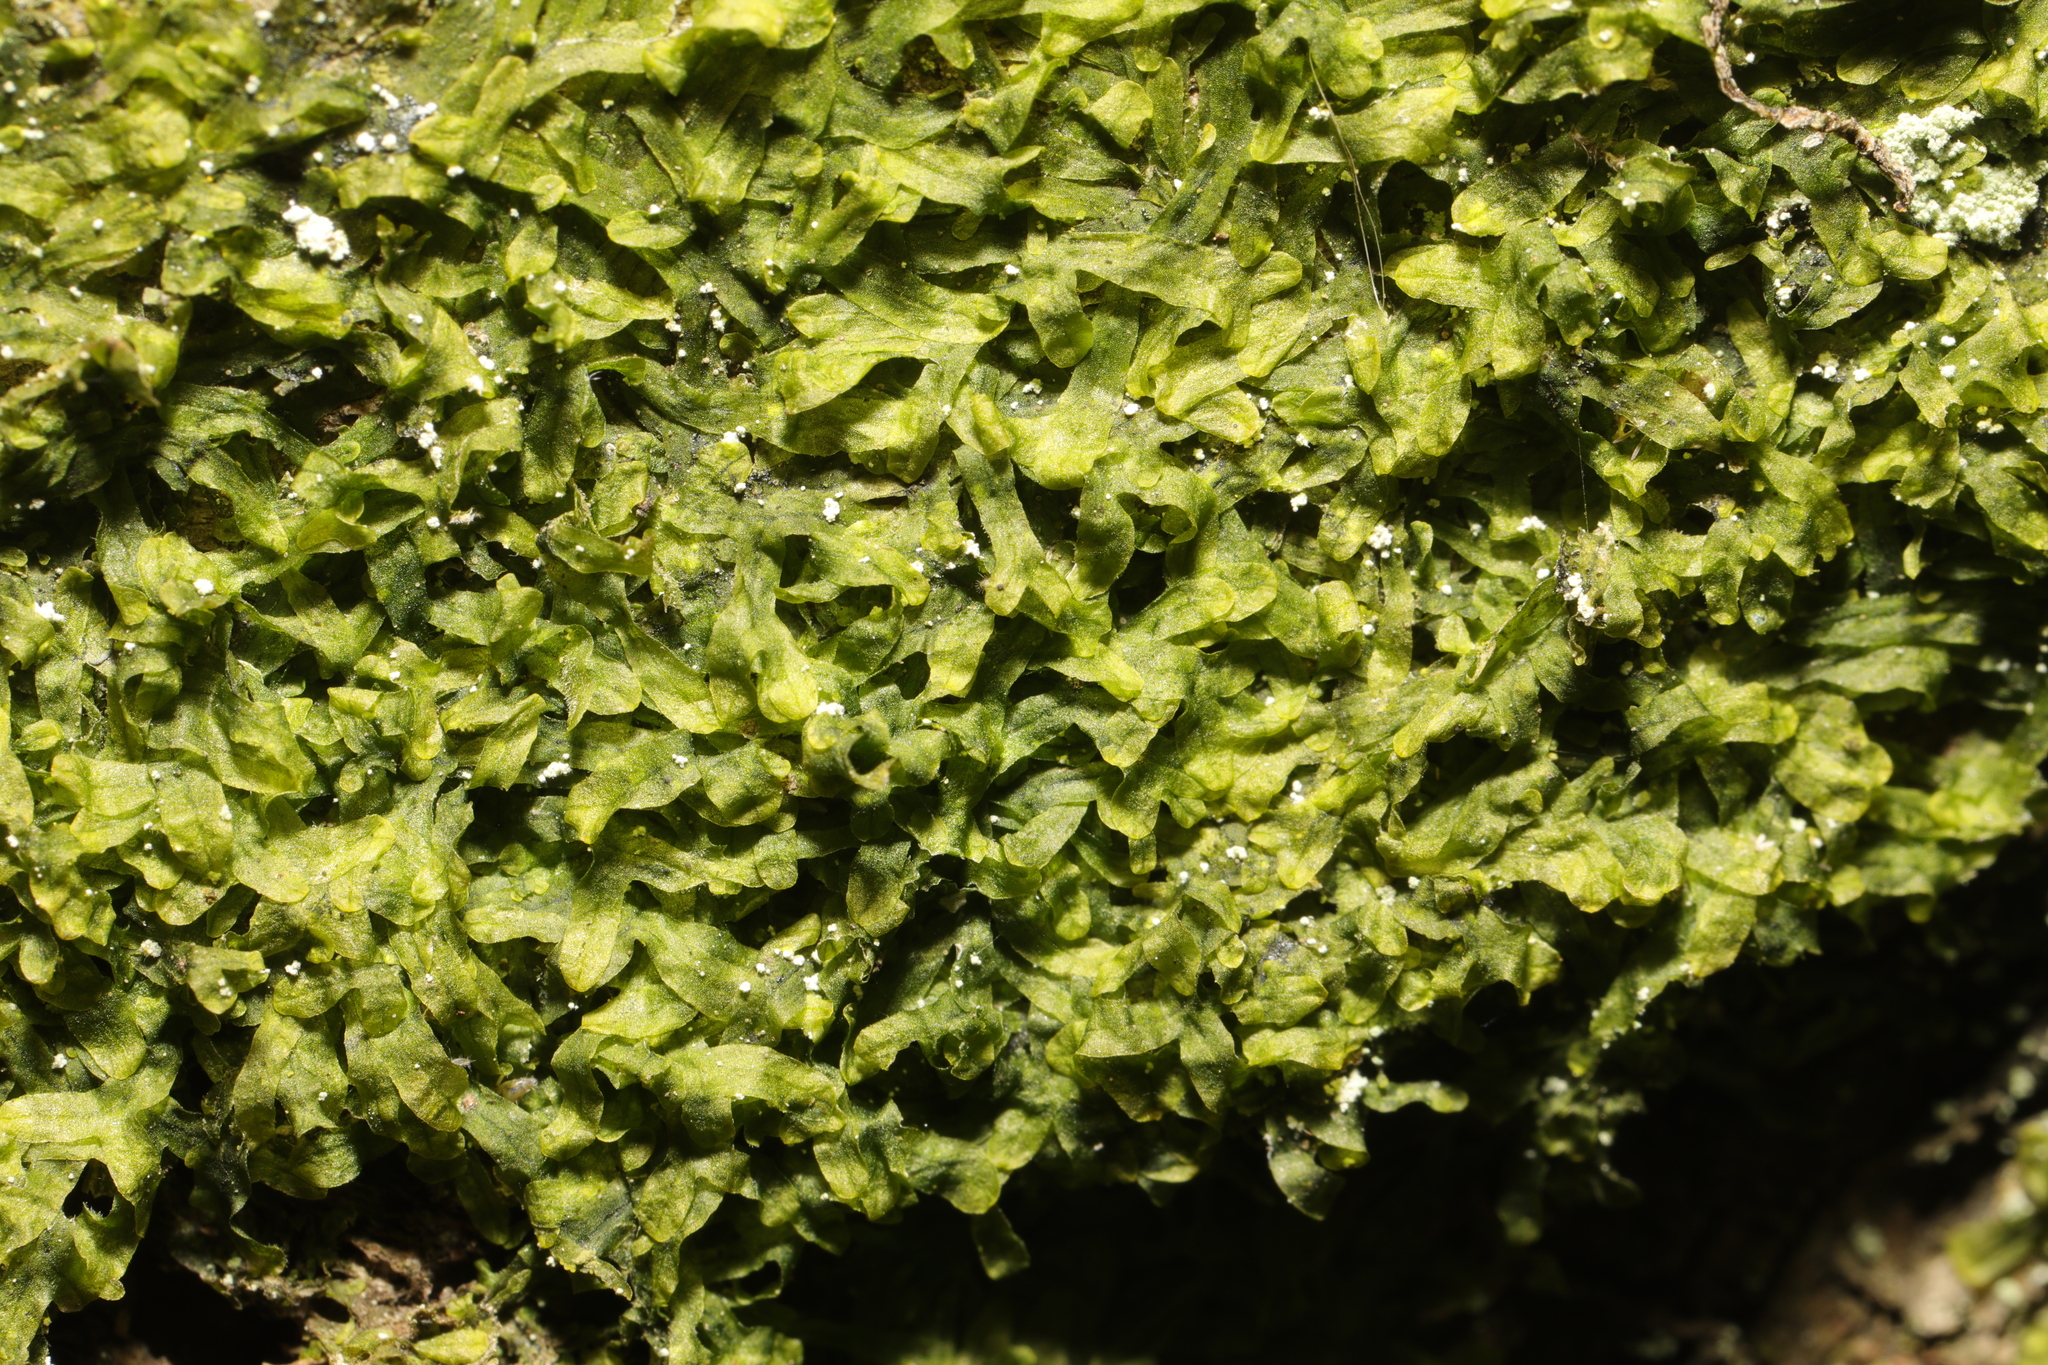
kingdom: Plantae
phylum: Marchantiophyta
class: Jungermanniopsida
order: Metzgeriales
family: Metzgeriaceae
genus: Metzgeria
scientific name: Metzgeria furcata
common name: Forked veilwort
